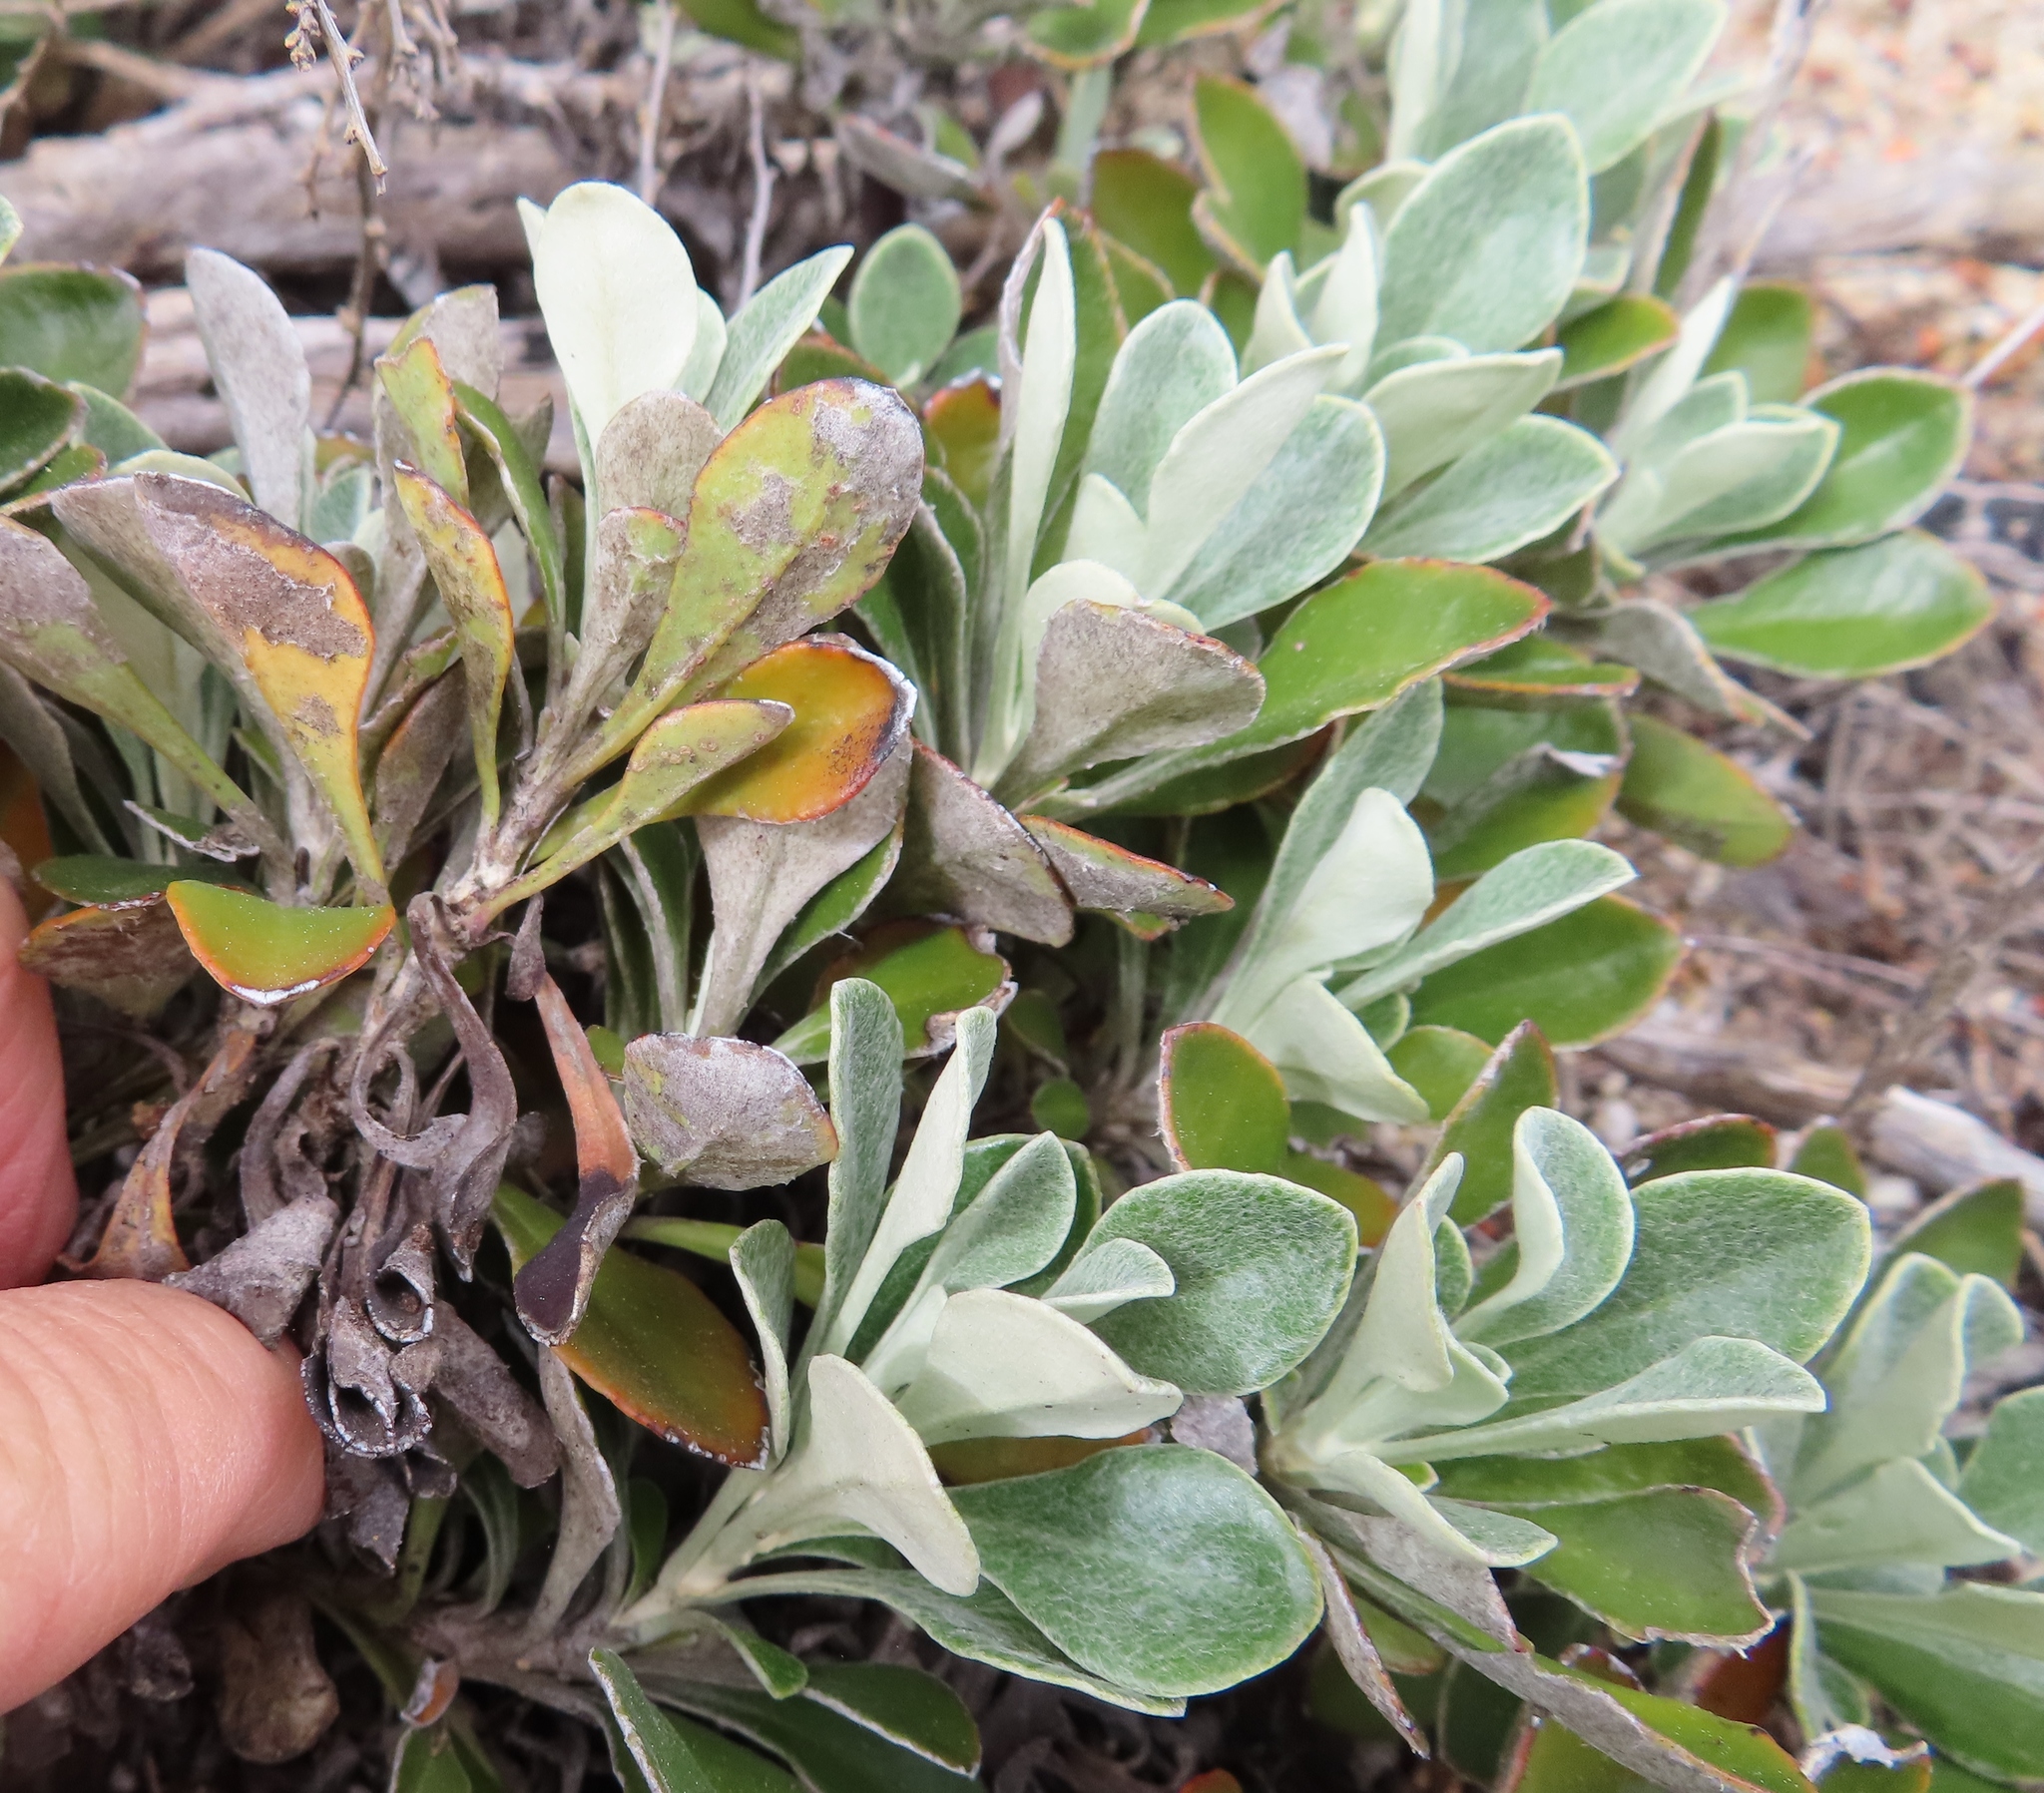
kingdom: Plantae
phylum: Tracheophyta
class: Magnoliopsida
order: Asterales
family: Asteraceae
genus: Osteospermum
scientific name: Osteospermum tomentosum
